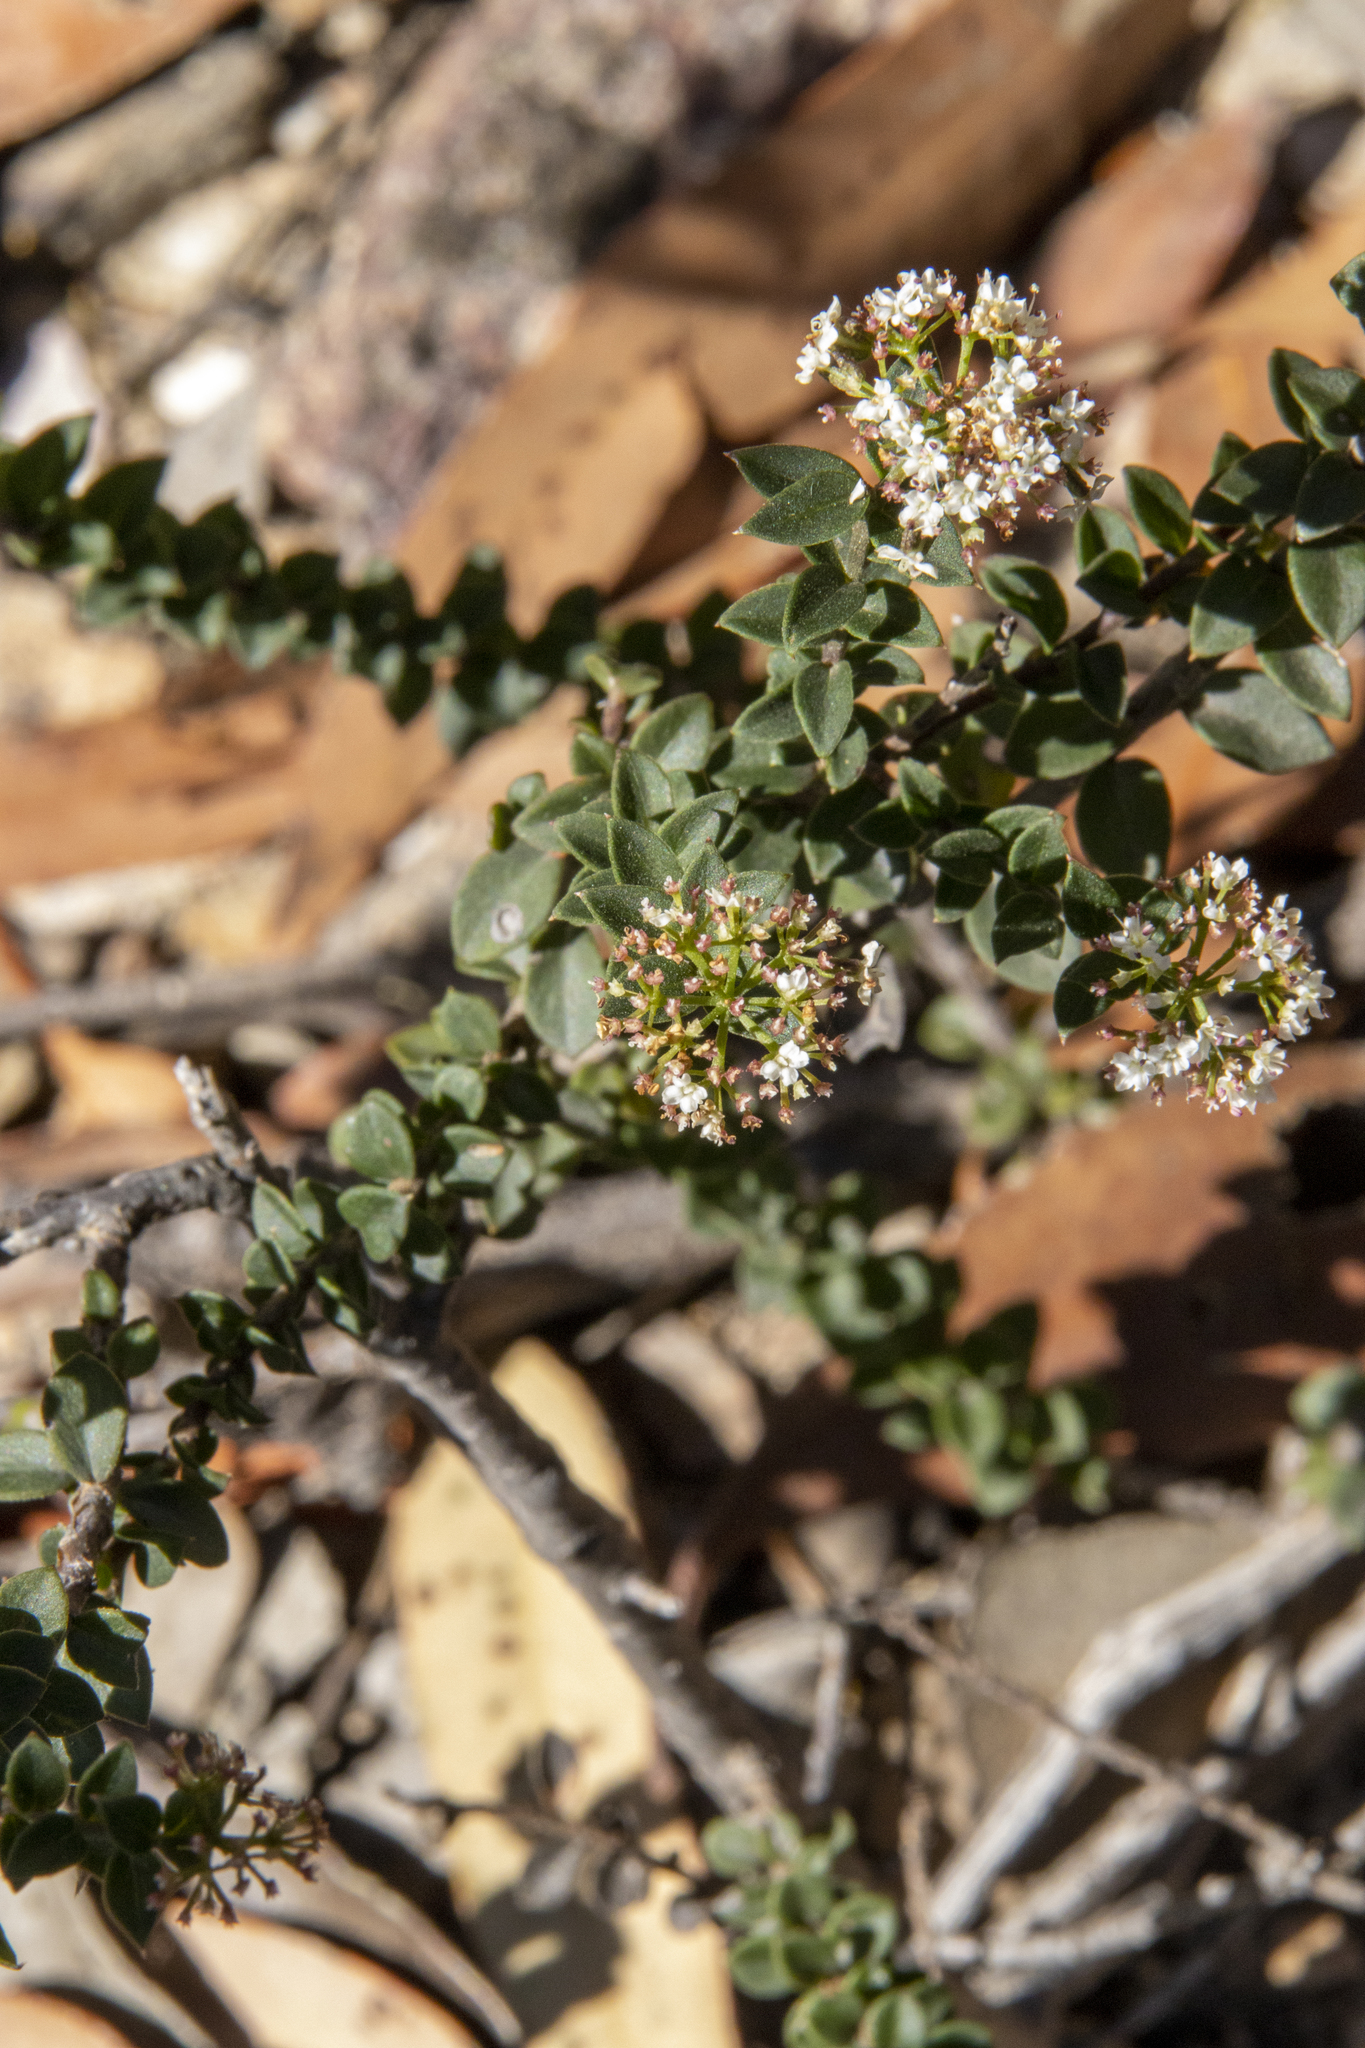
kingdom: Plantae
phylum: Tracheophyta
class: Magnoliopsida
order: Apiales
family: Apiaceae
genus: Platysace
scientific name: Platysace lanceolata
